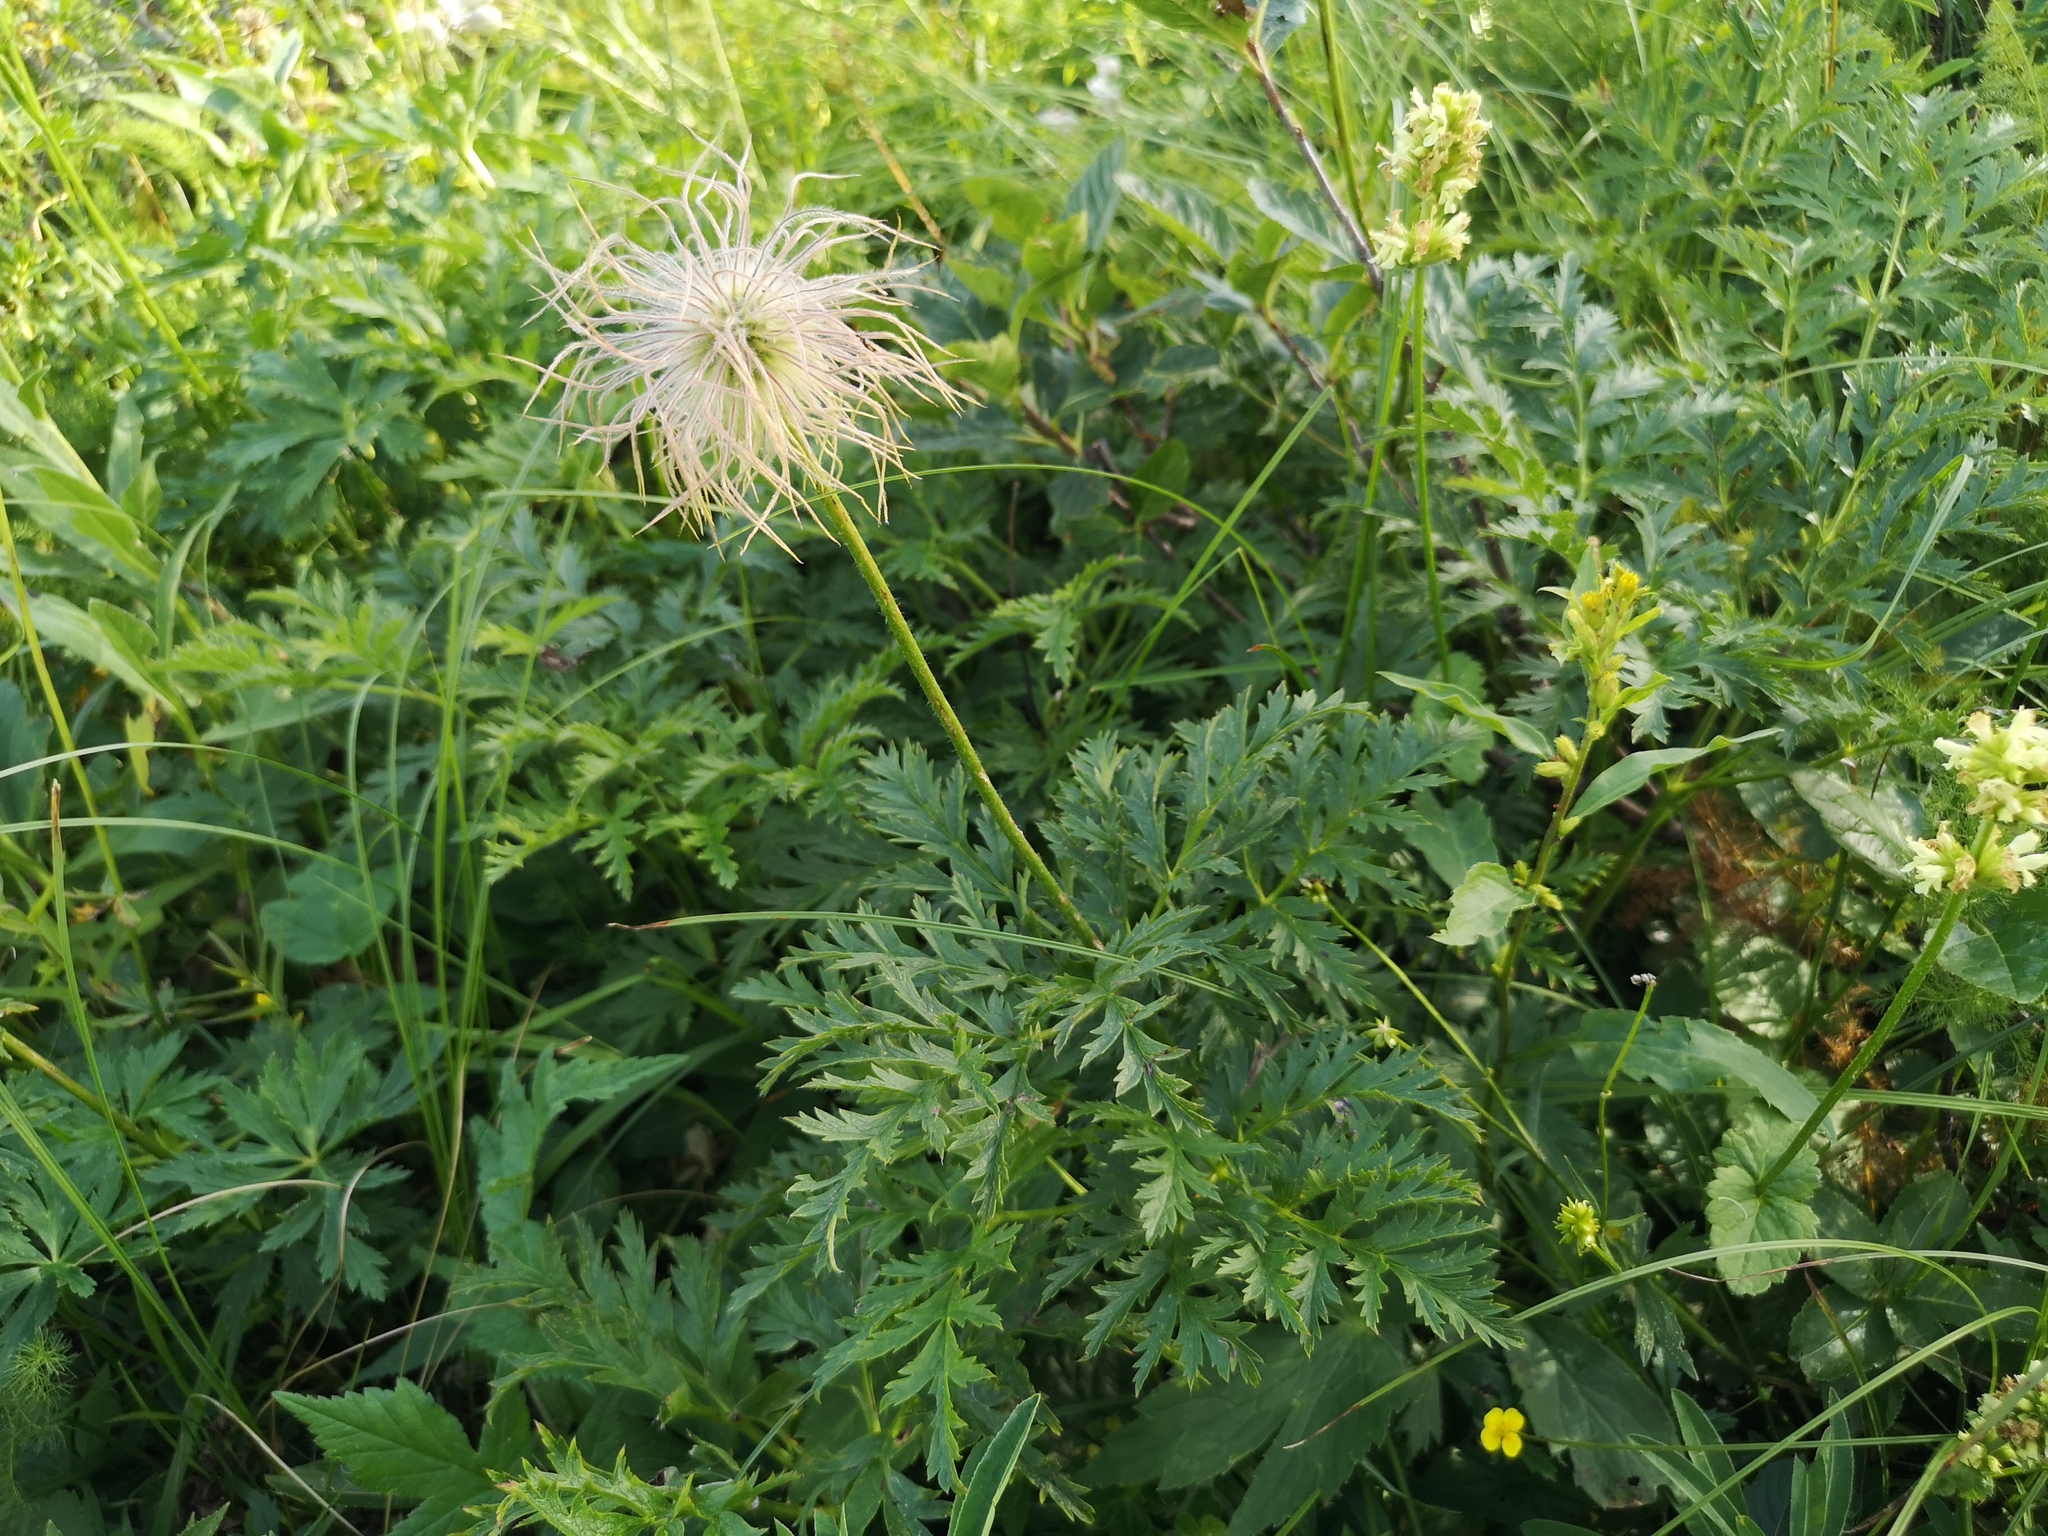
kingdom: Plantae
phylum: Tracheophyta
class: Magnoliopsida
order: Ranunculales
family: Ranunculaceae
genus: Pulsatilla
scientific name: Pulsatilla alpina
